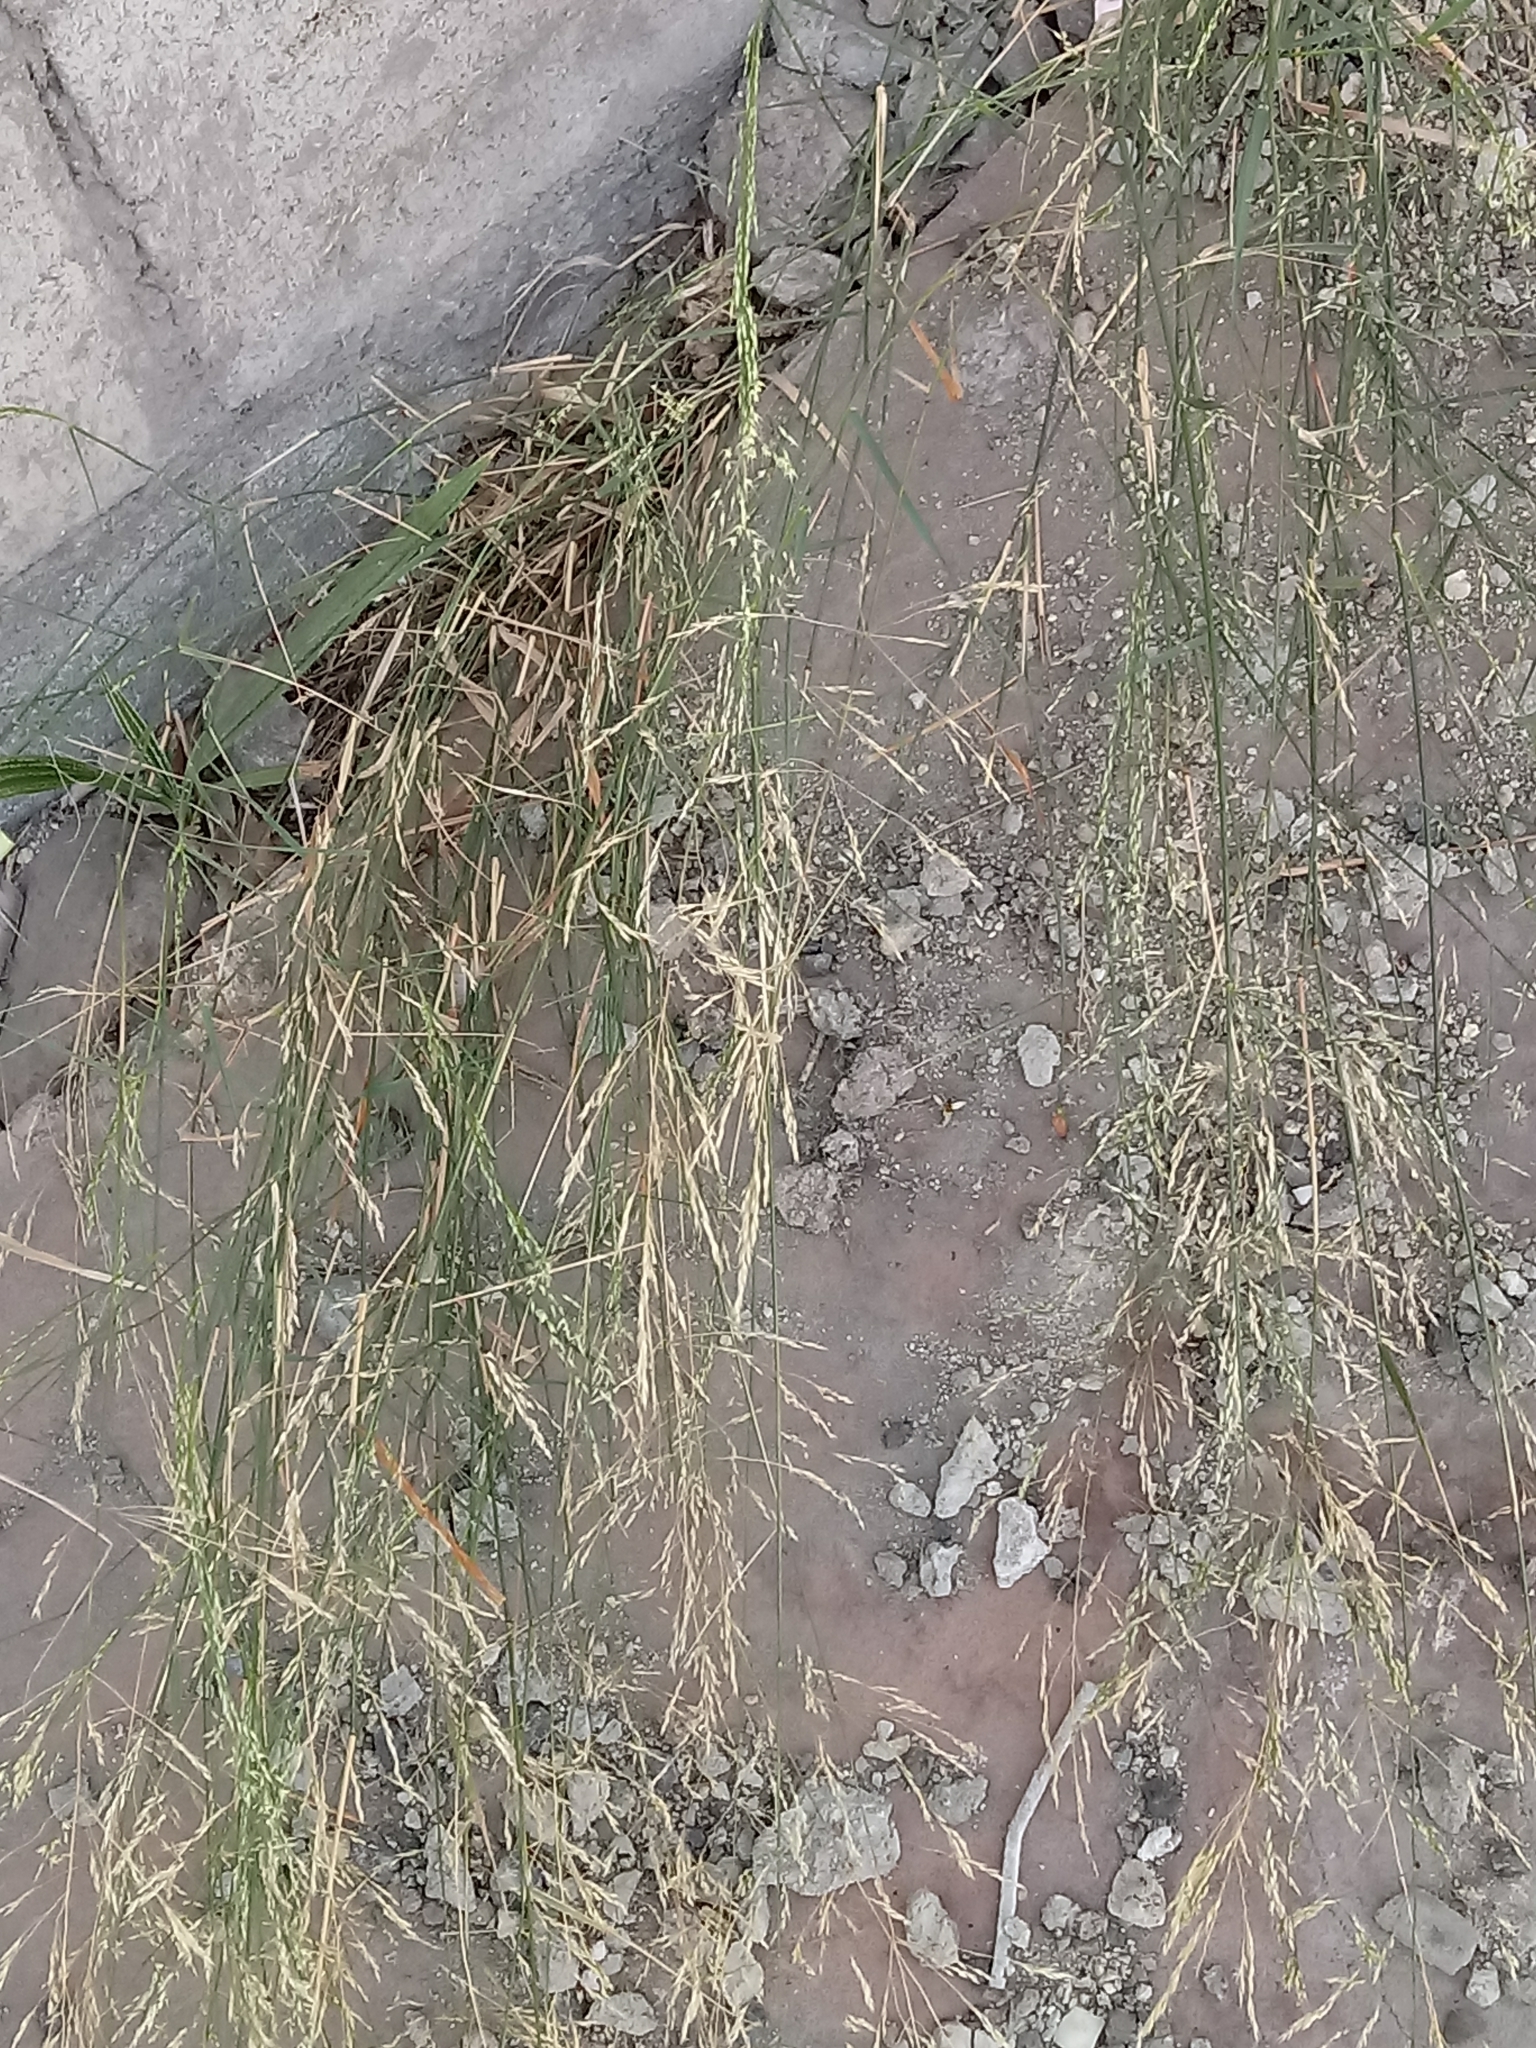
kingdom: Plantae
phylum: Tracheophyta
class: Liliopsida
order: Poales
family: Poaceae
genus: Oloptum
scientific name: Oloptum miliaceum
